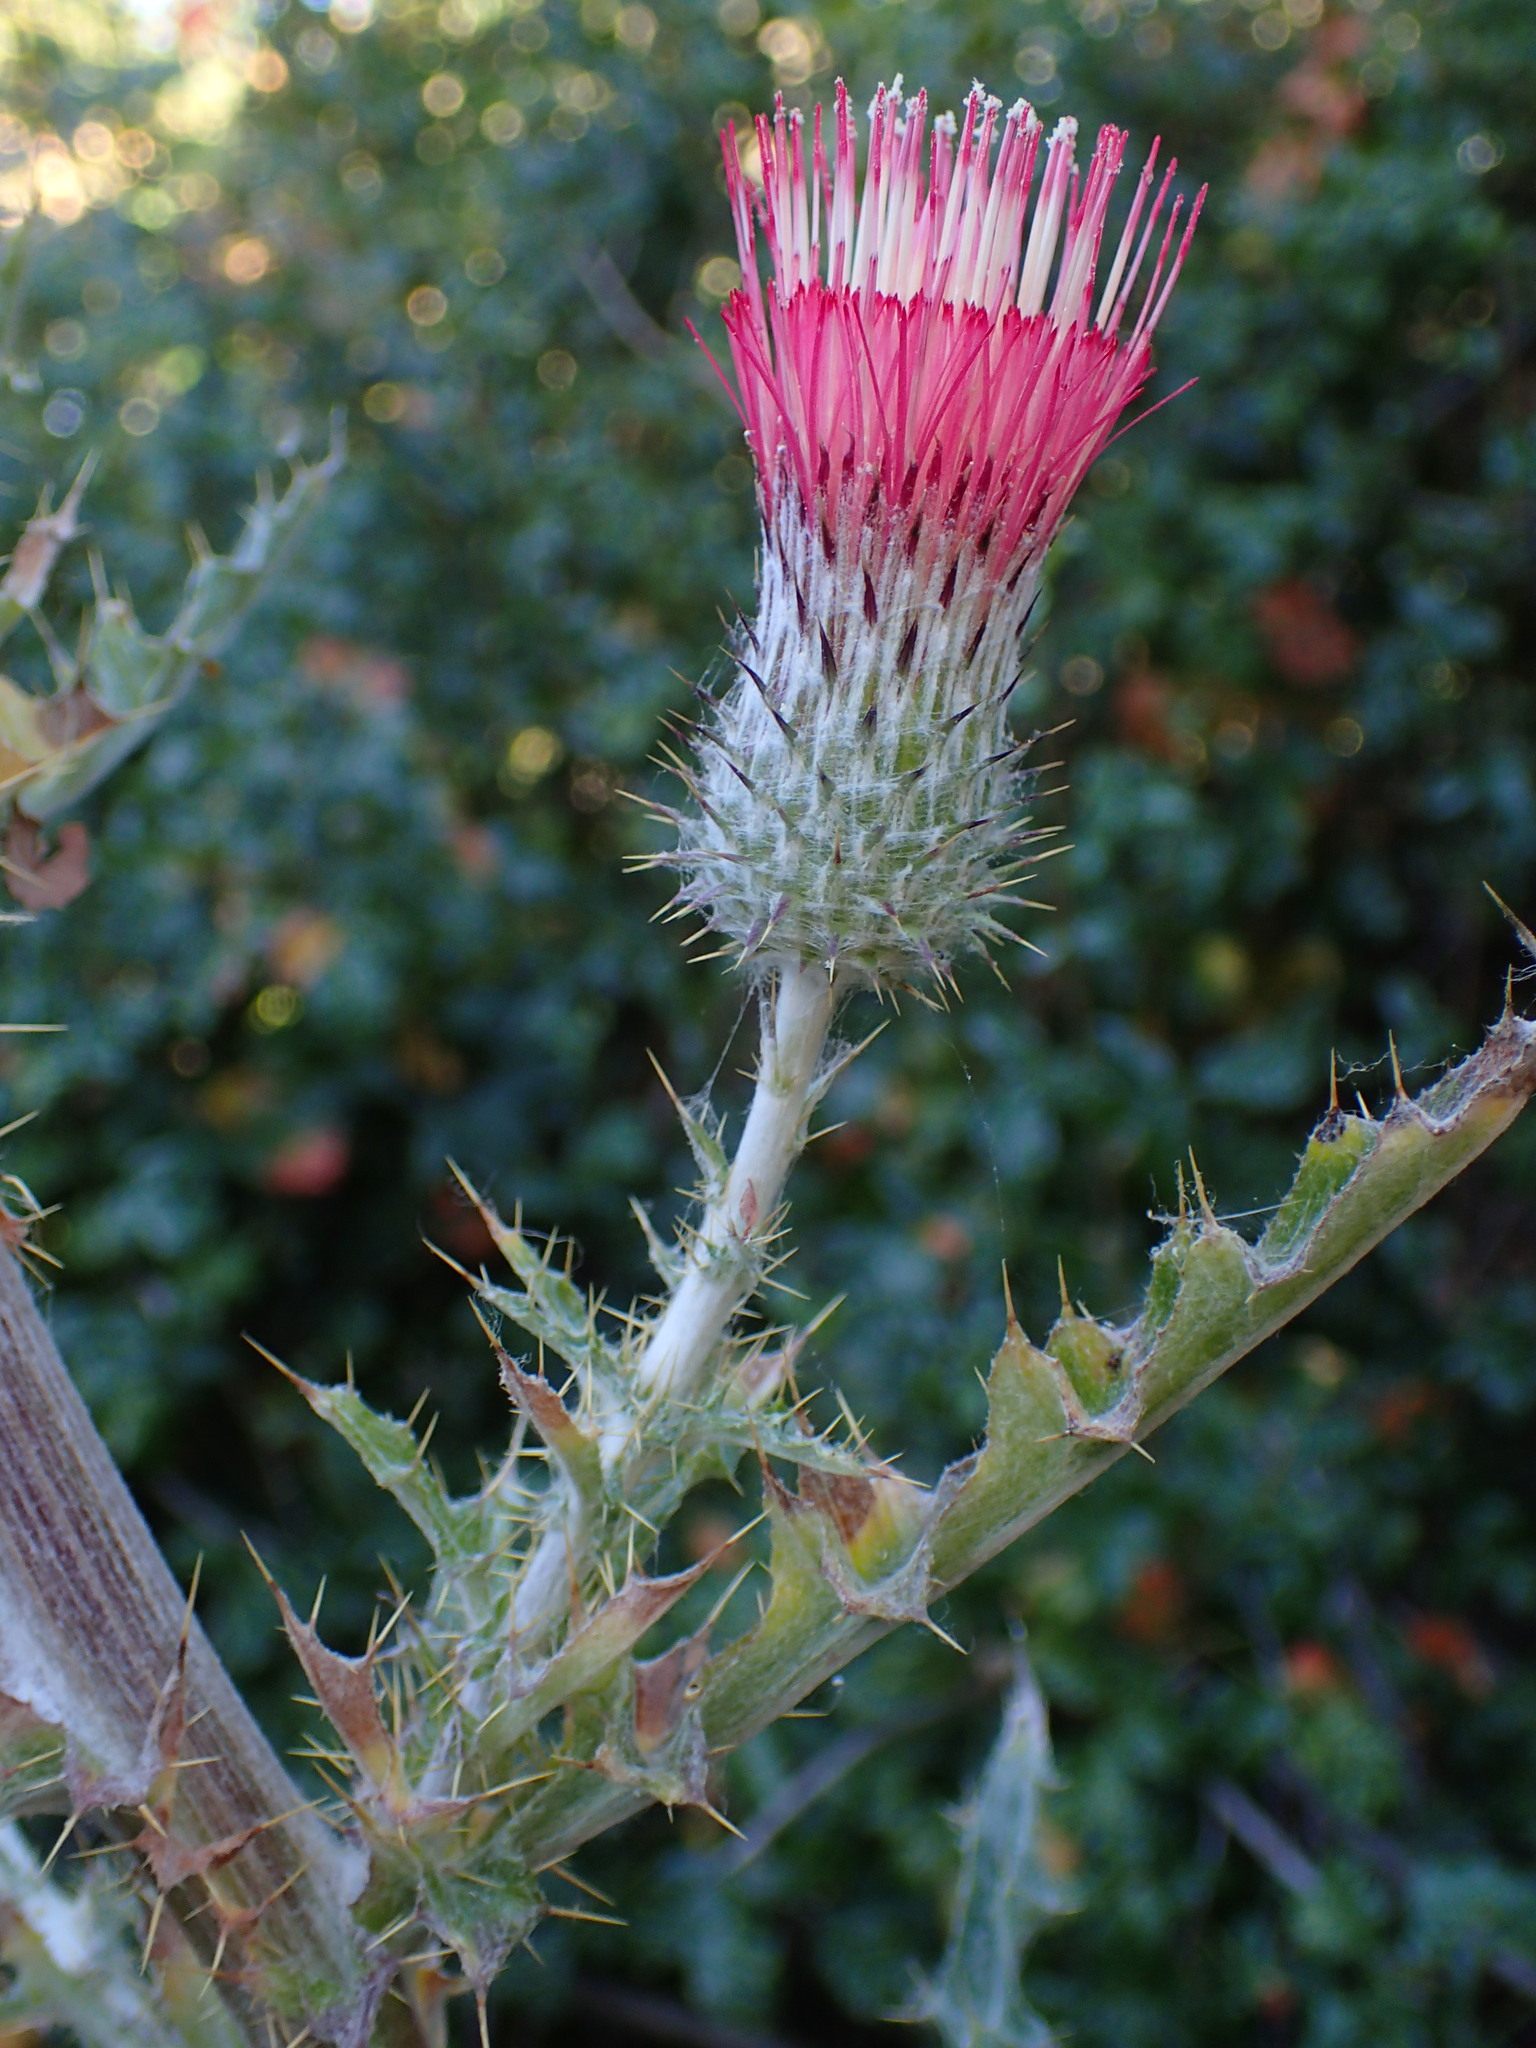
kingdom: Plantae
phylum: Tracheophyta
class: Magnoliopsida
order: Asterales
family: Asteraceae
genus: Cirsium
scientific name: Cirsium occidentale
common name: Western thistle
